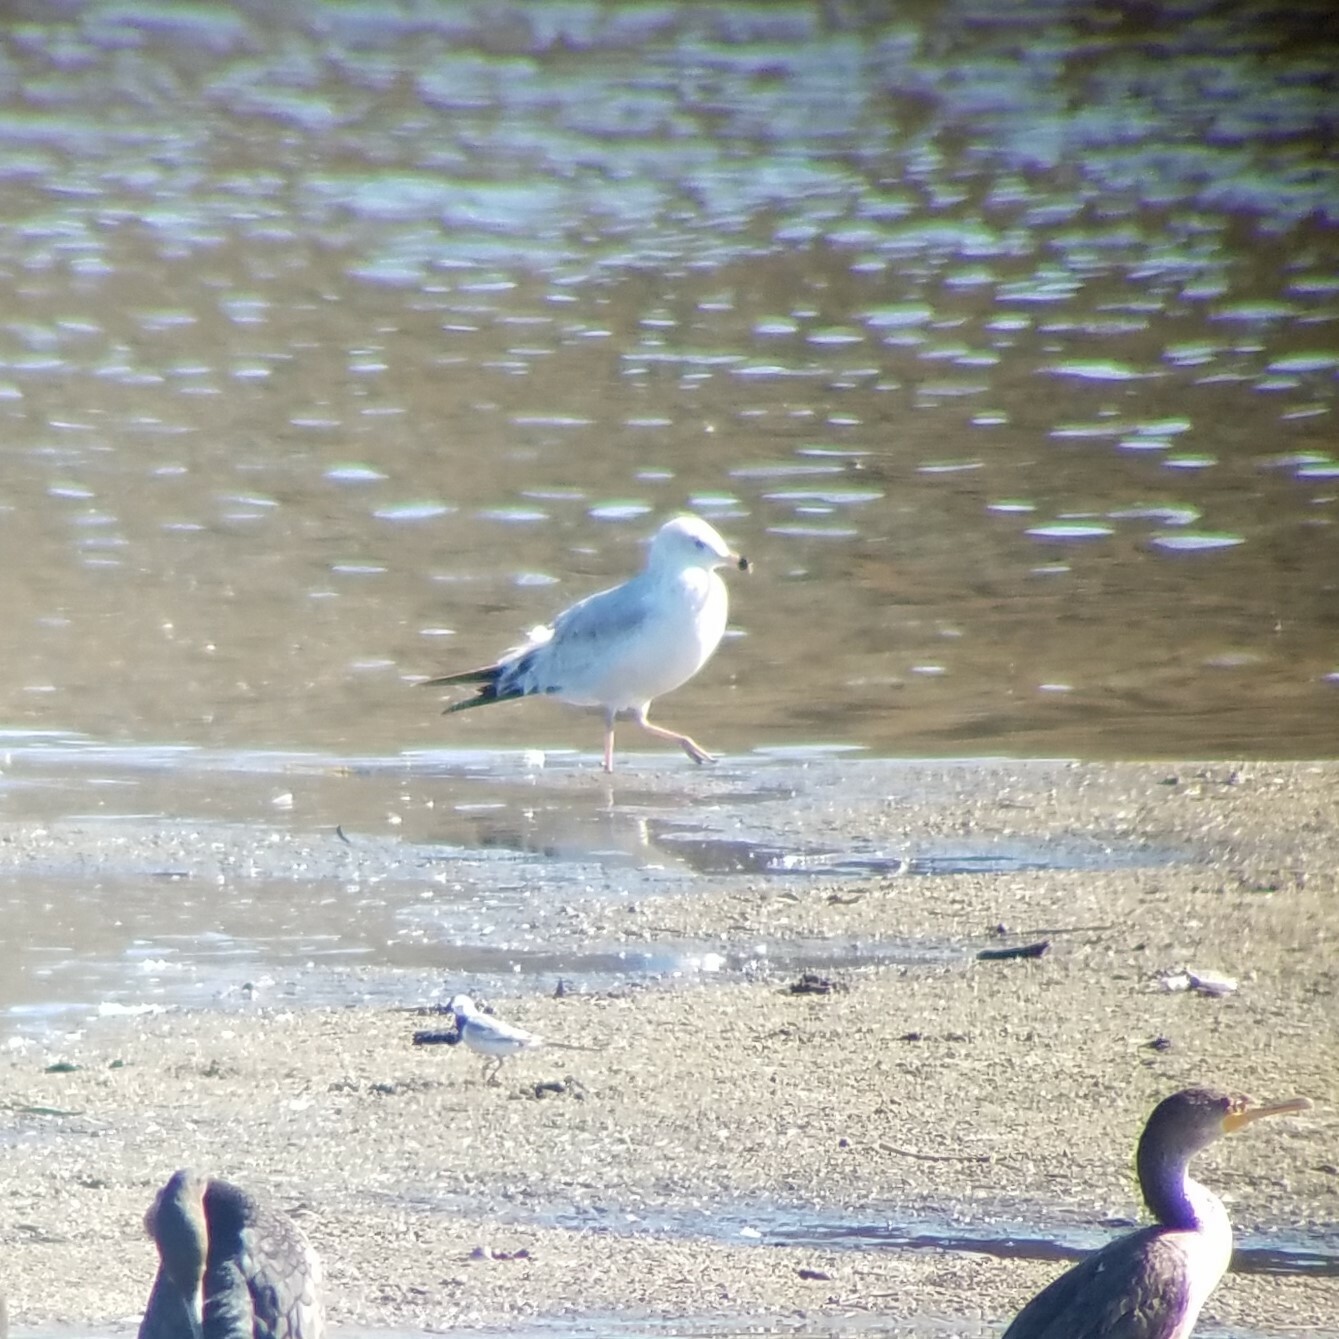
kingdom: Animalia
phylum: Chordata
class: Aves
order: Charadriiformes
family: Laridae
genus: Larus
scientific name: Larus delawarensis
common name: Ring-billed gull
